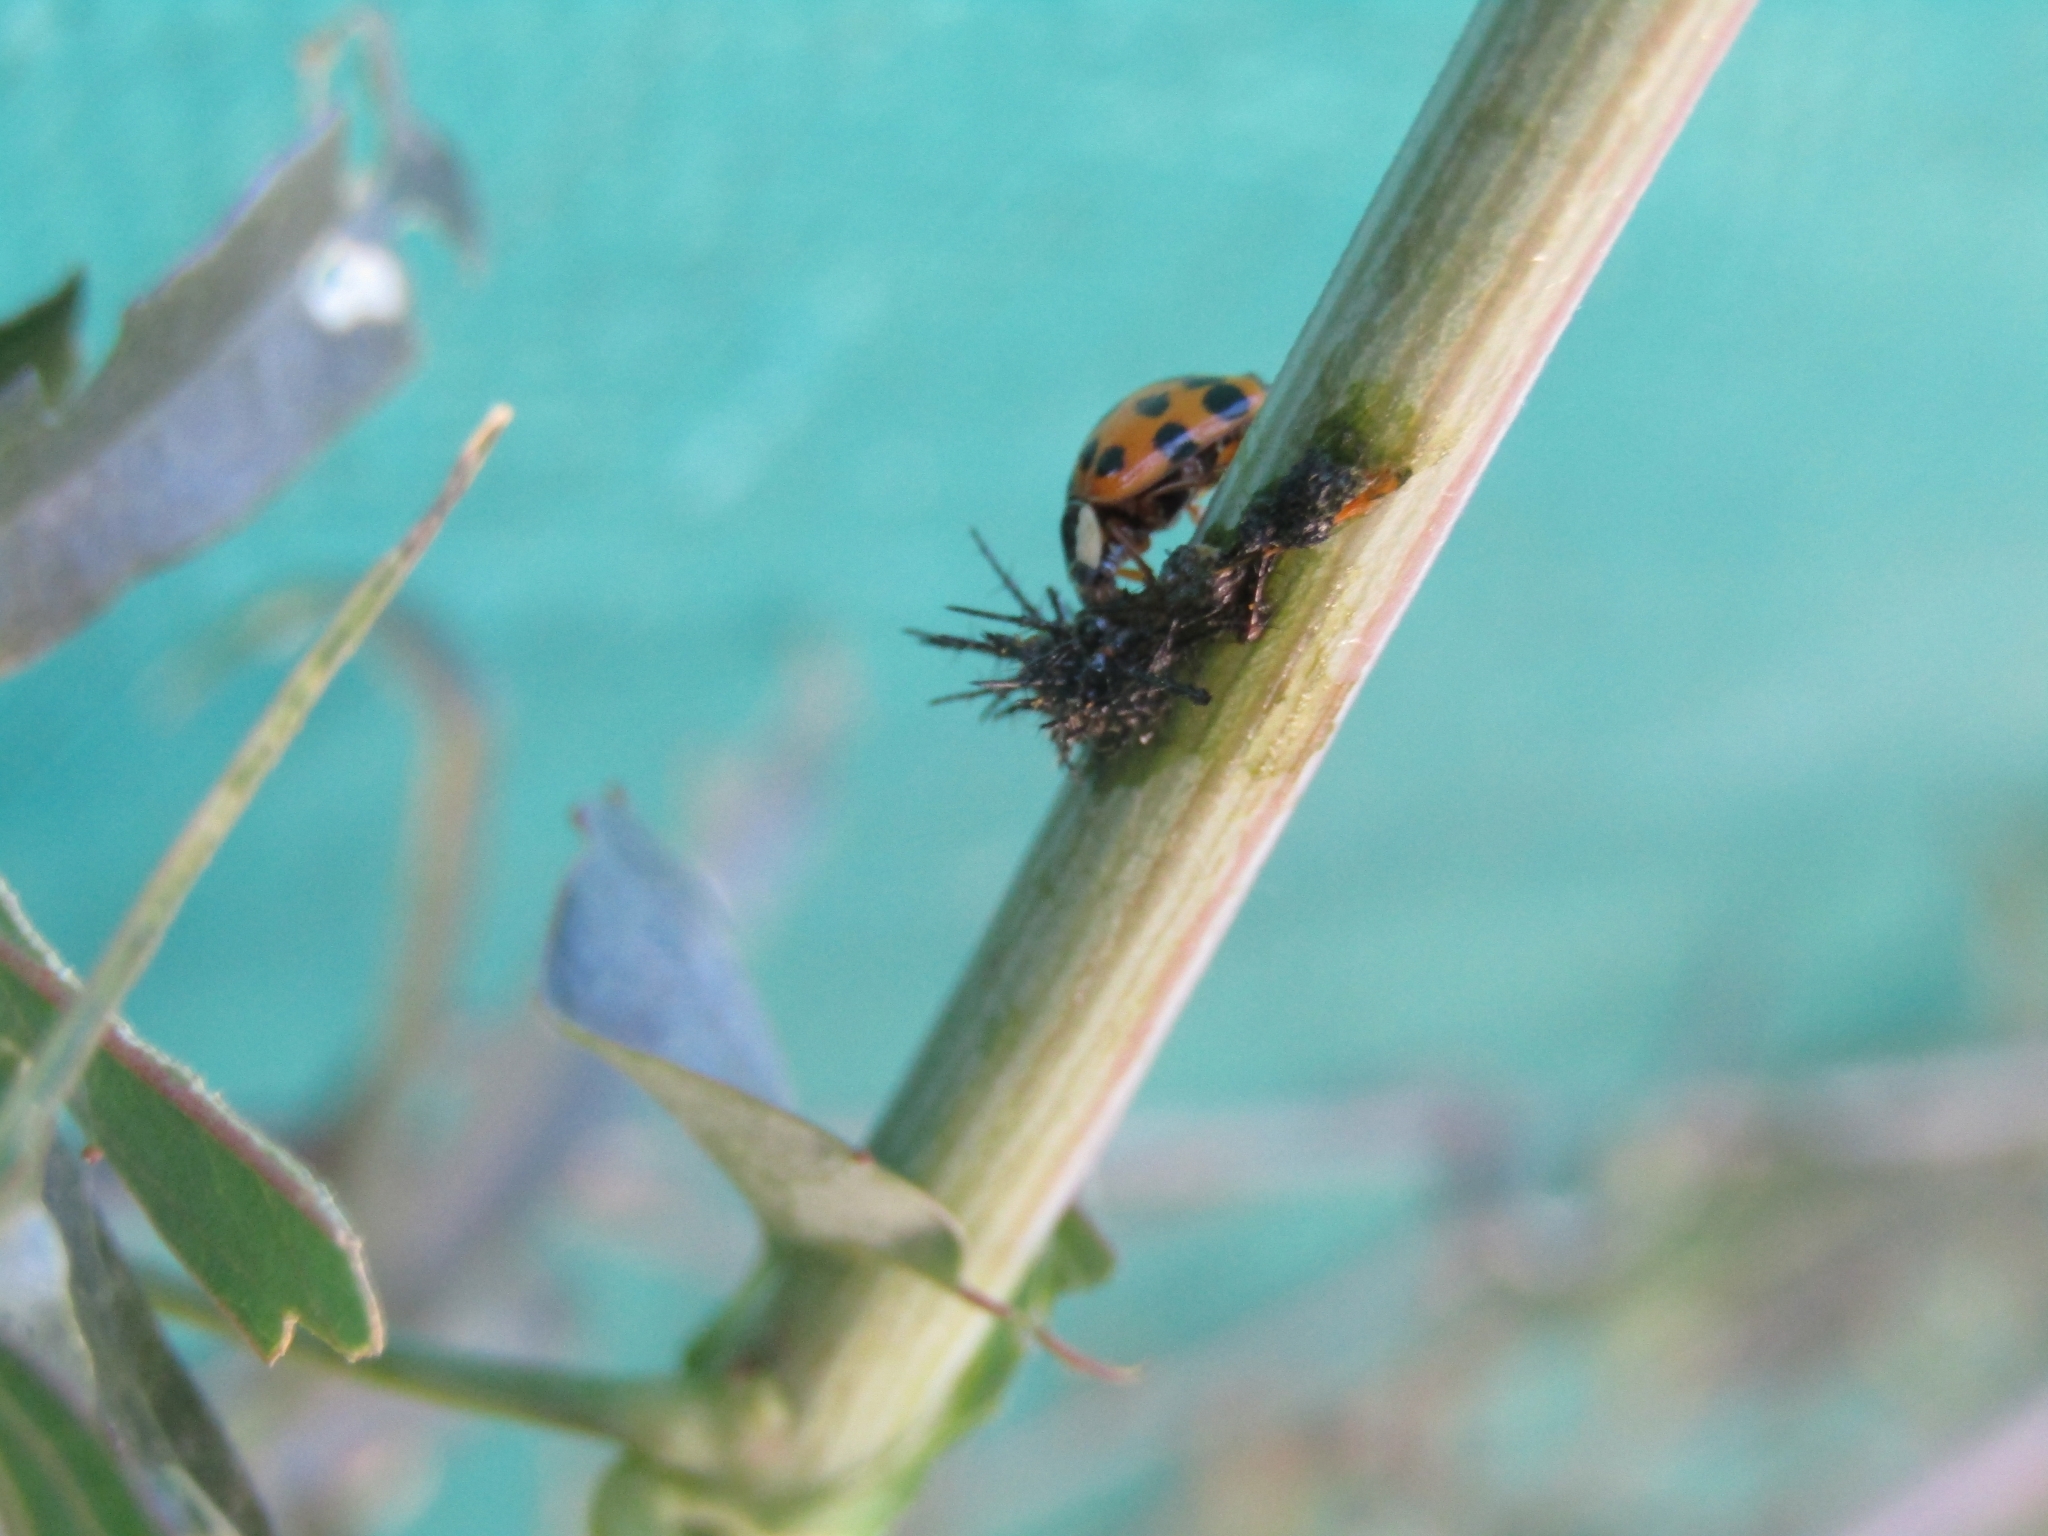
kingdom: Animalia
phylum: Arthropoda
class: Insecta
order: Coleoptera
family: Coccinellidae
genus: Harmonia
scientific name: Harmonia axyridis
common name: Harlequin ladybird
